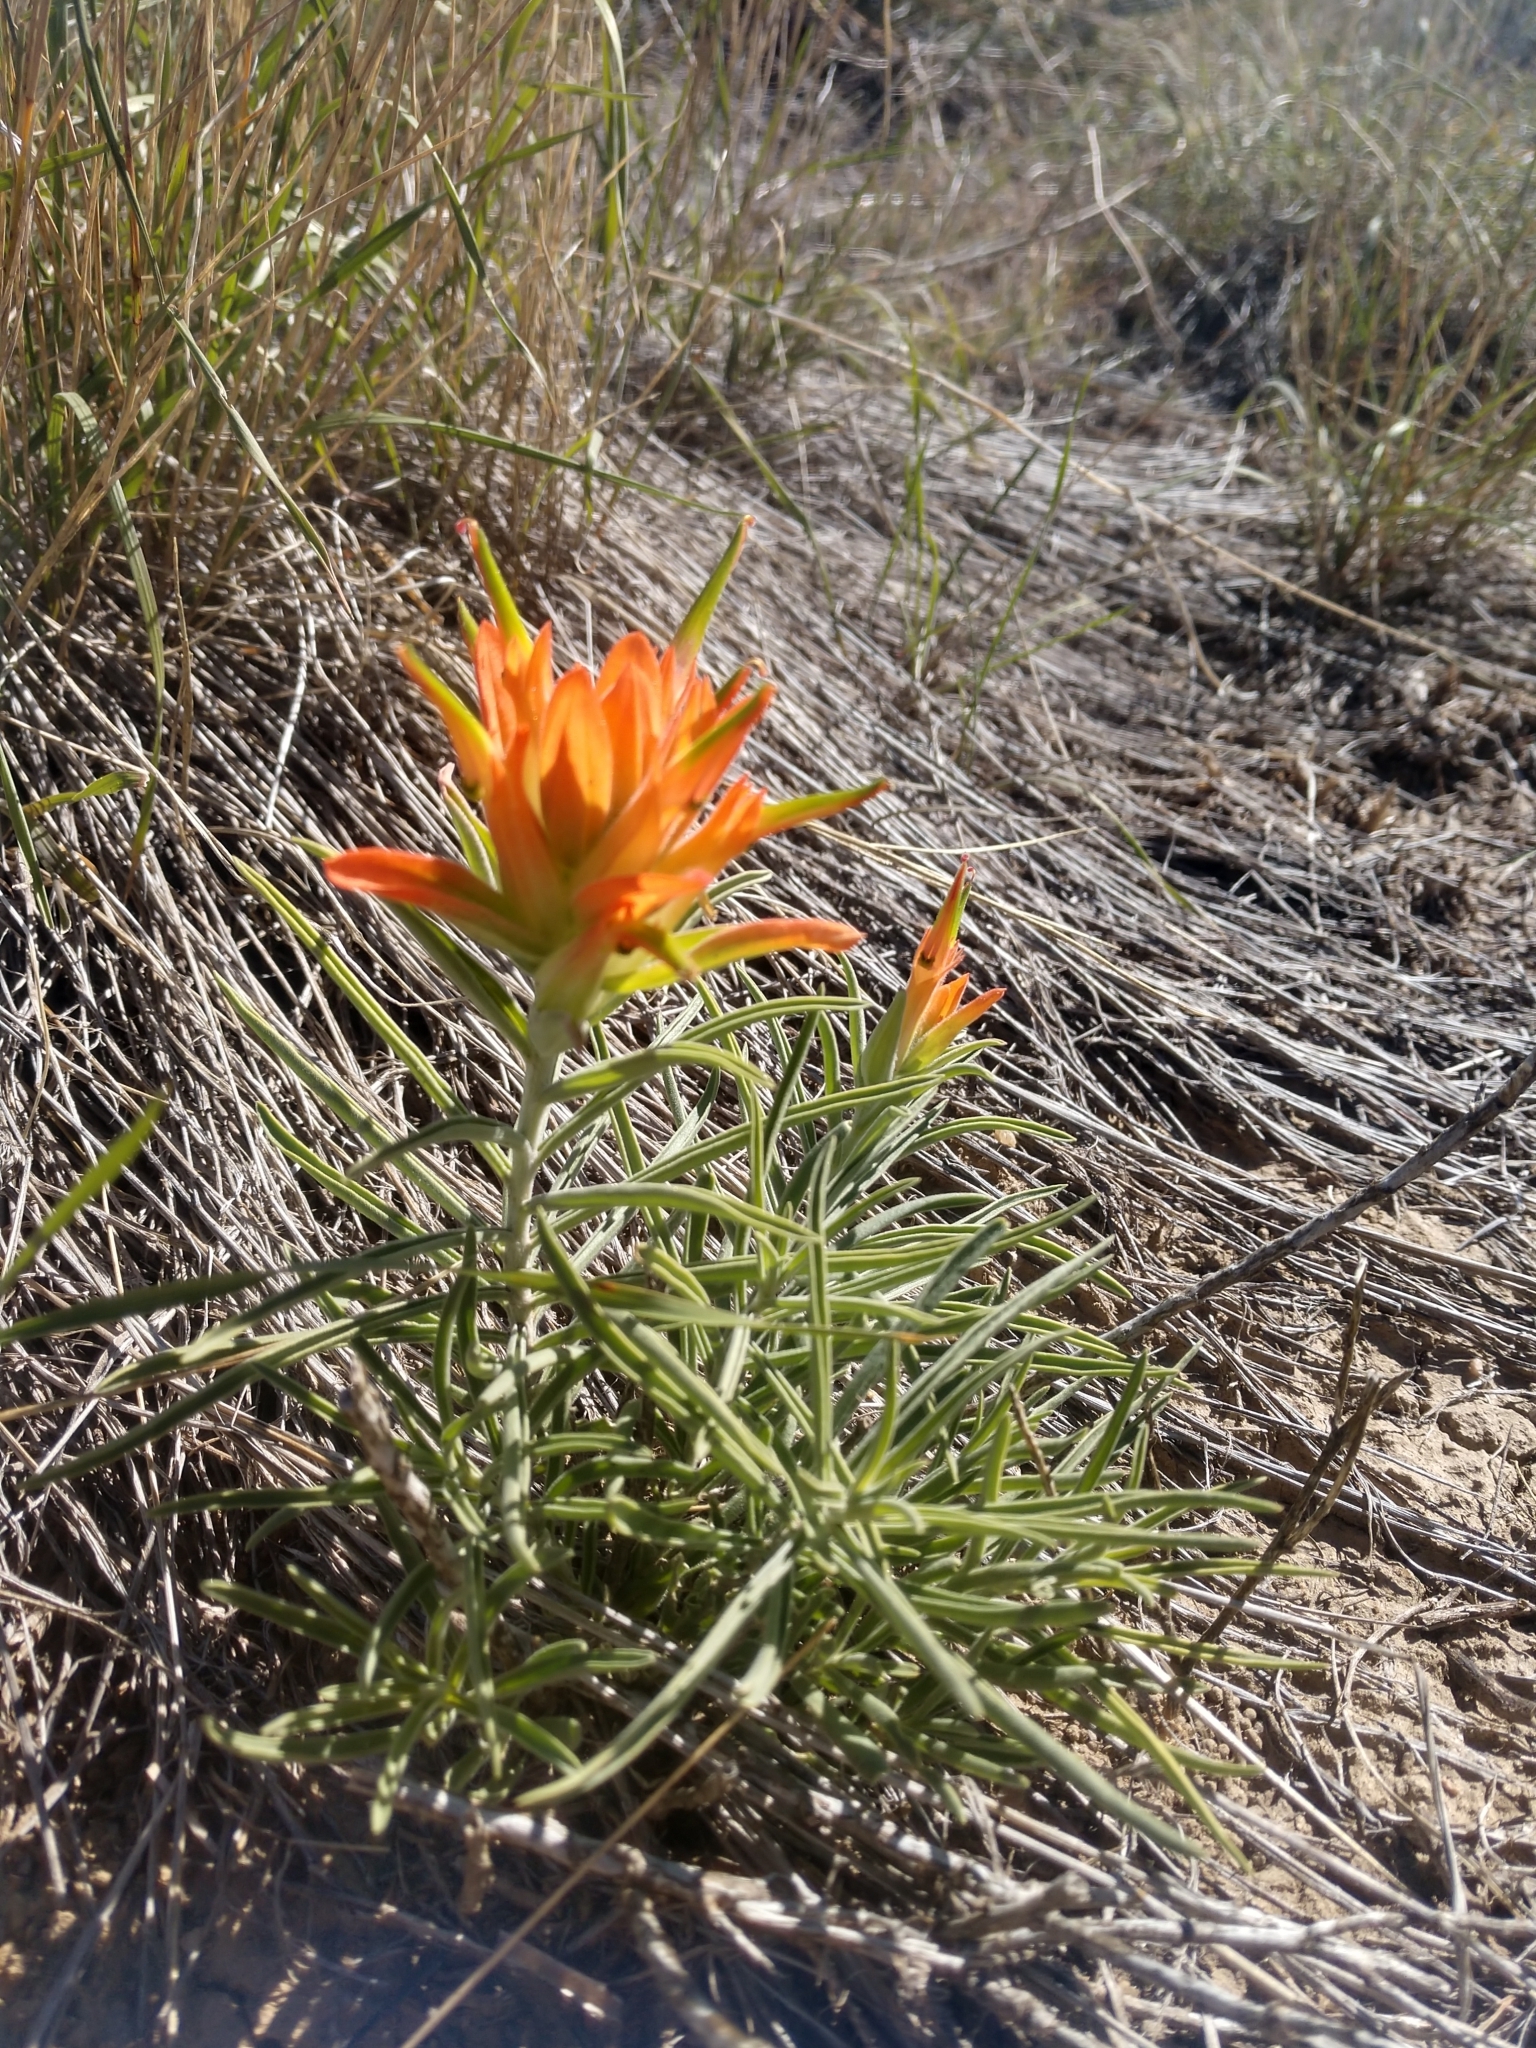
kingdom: Plantae
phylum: Tracheophyta
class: Magnoliopsida
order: Lamiales
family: Orobanchaceae
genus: Castilleja
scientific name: Castilleja integra
